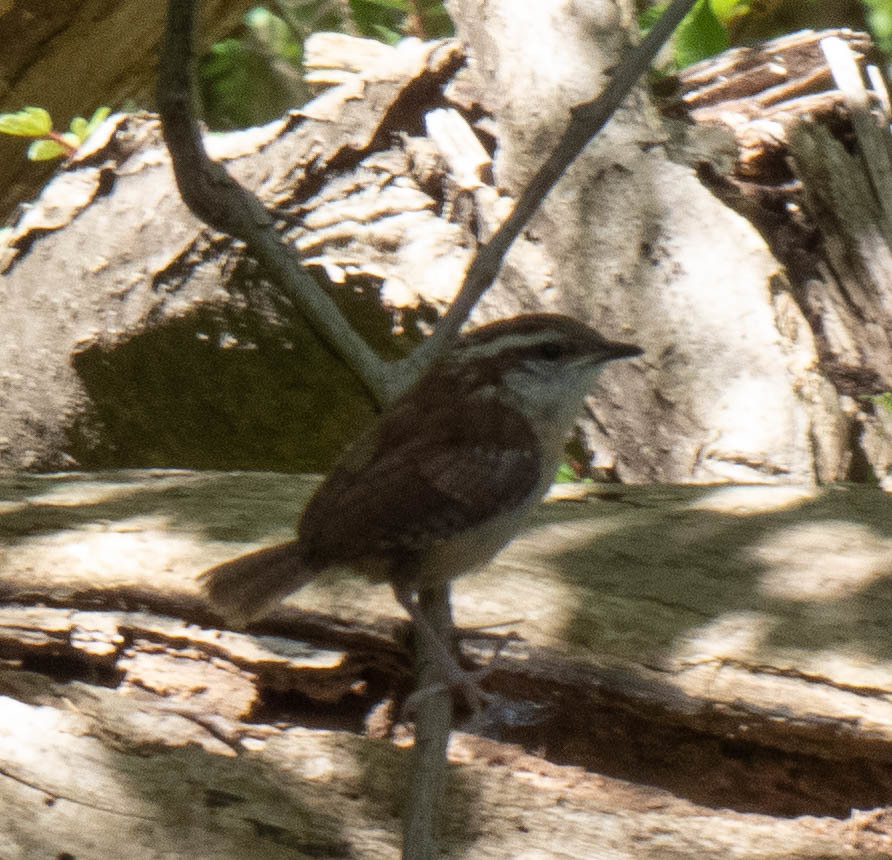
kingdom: Animalia
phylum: Chordata
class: Aves
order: Passeriformes
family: Troglodytidae
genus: Thryothorus
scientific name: Thryothorus ludovicianus
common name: Carolina wren
